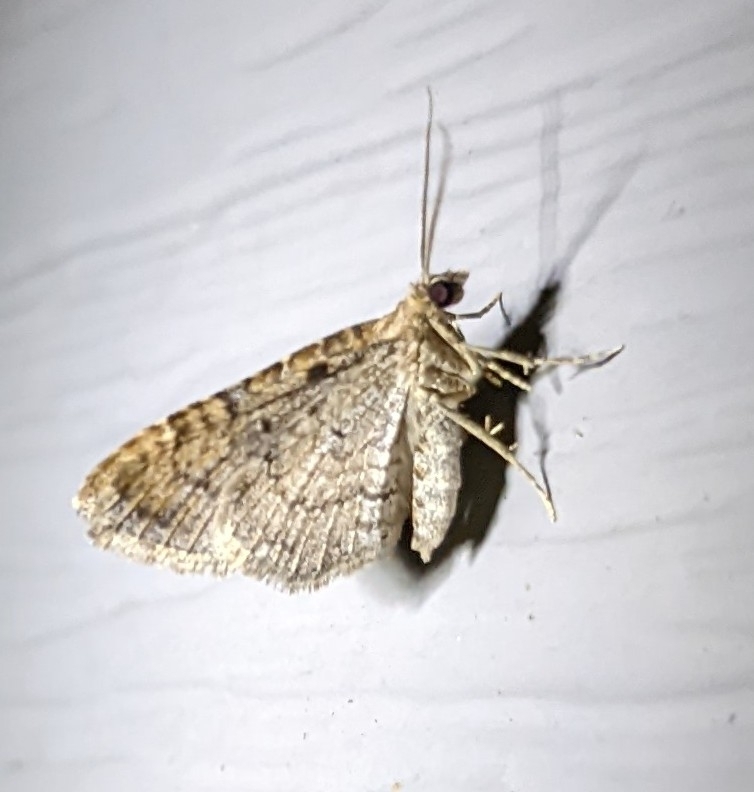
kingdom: Animalia
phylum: Arthropoda
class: Insecta
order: Lepidoptera
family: Geometridae
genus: Orthonama
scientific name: Orthonama obstipata
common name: The gem
